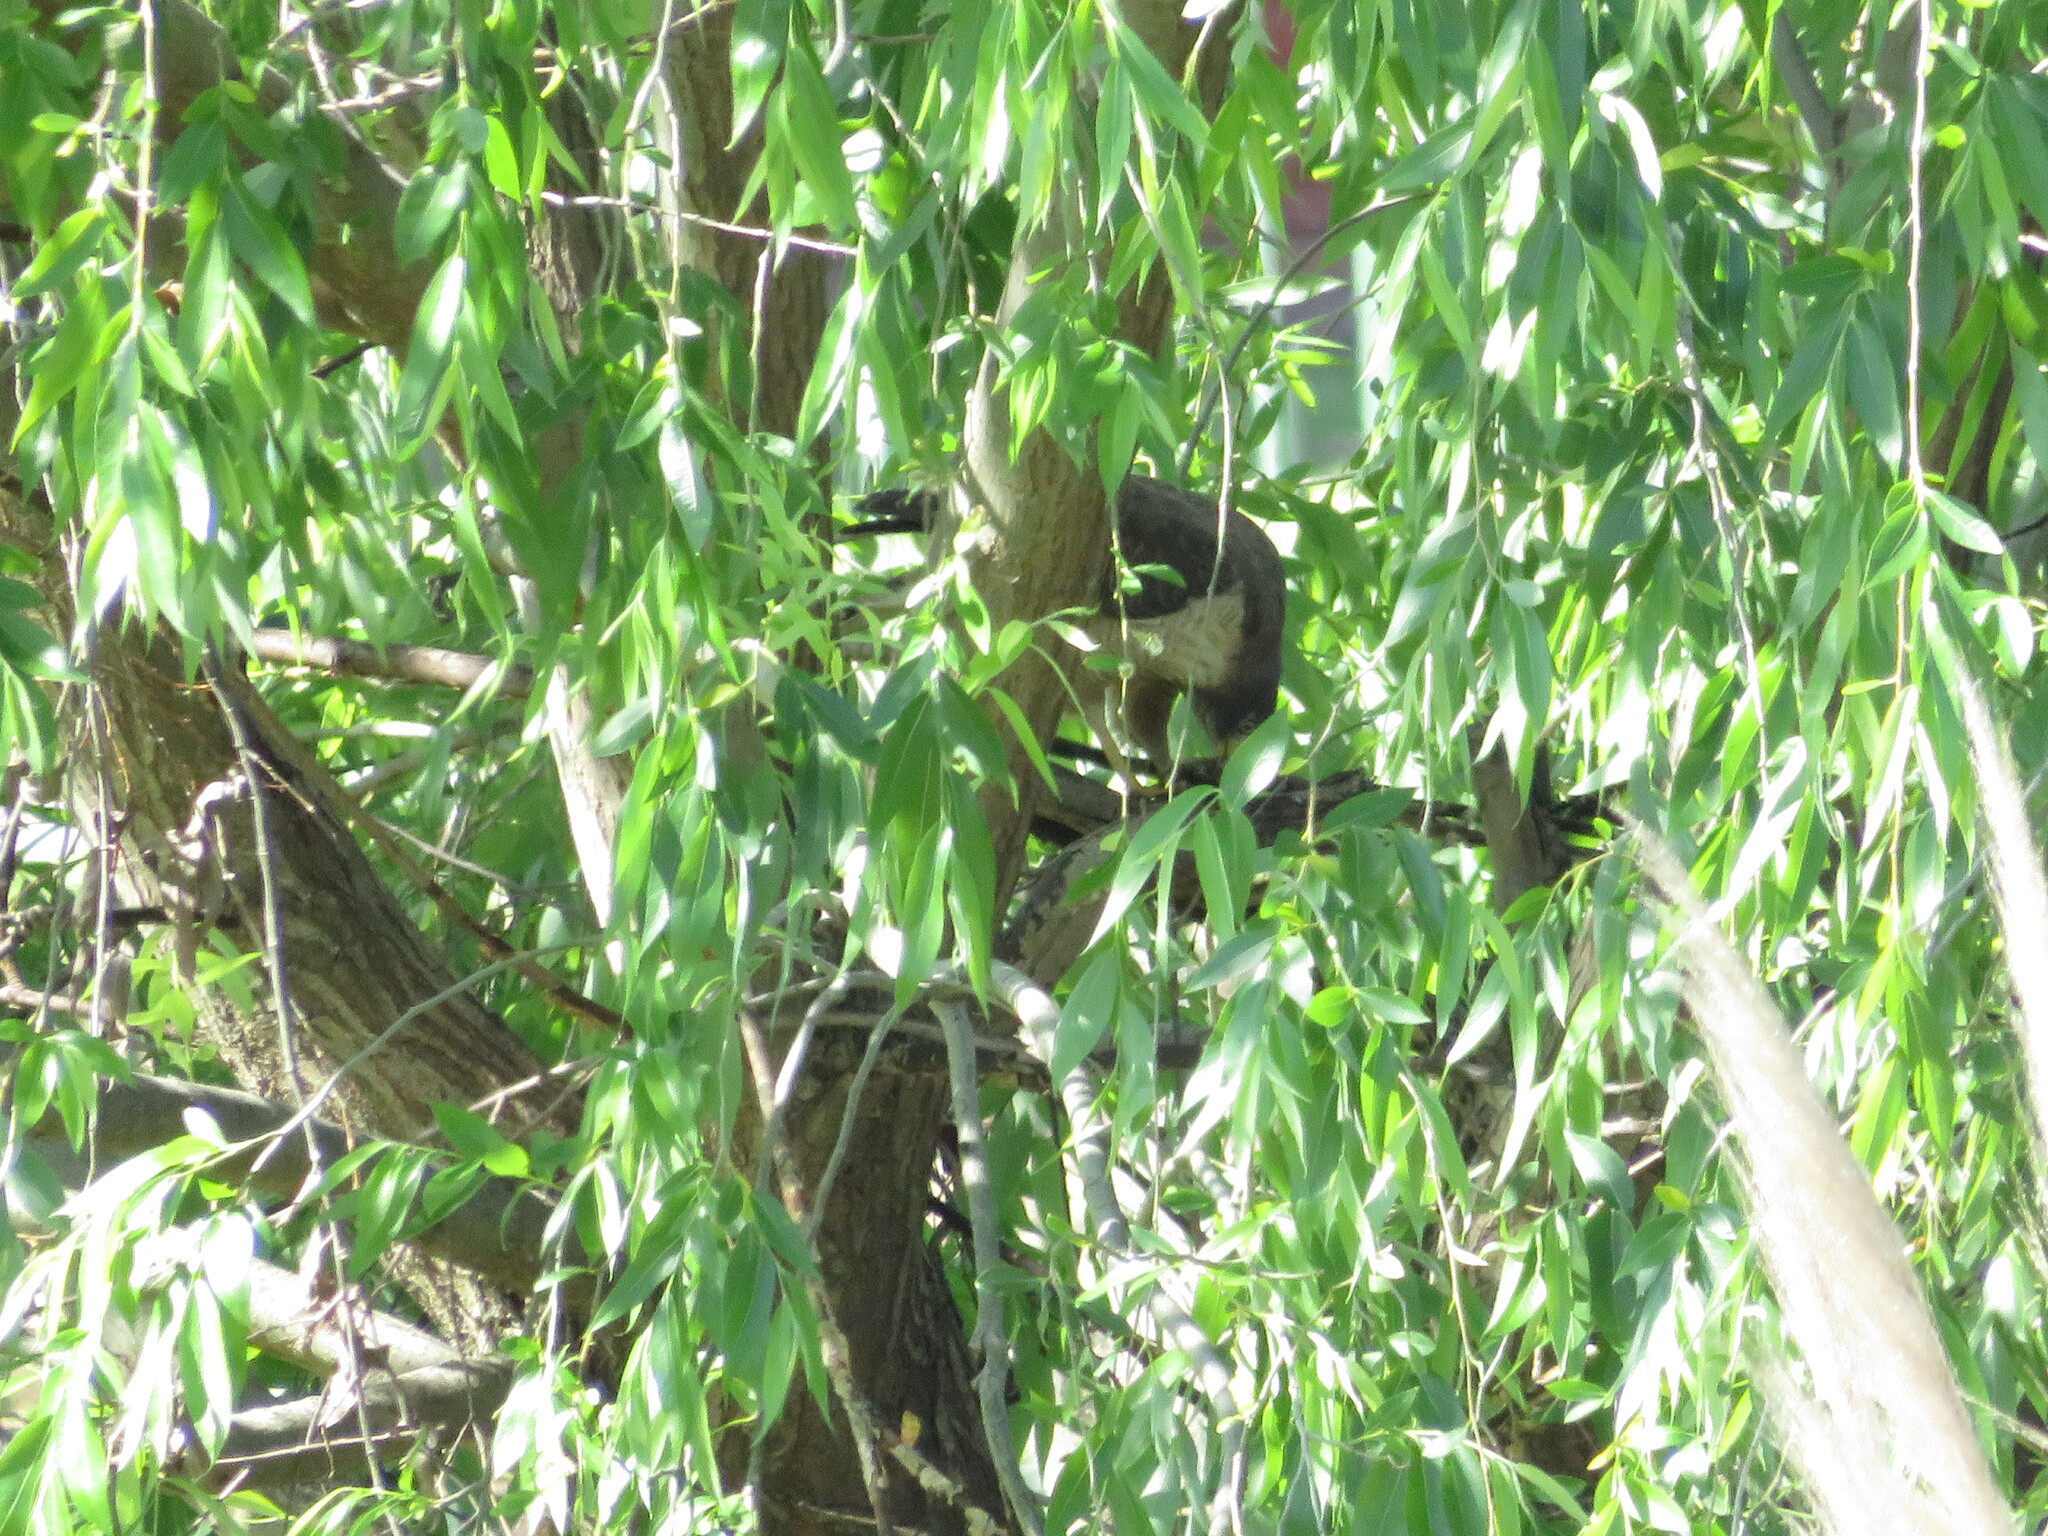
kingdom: Animalia
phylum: Chordata
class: Aves
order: Accipitriformes
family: Accipitridae
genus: Rupornis
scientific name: Rupornis magnirostris
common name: Roadside hawk
